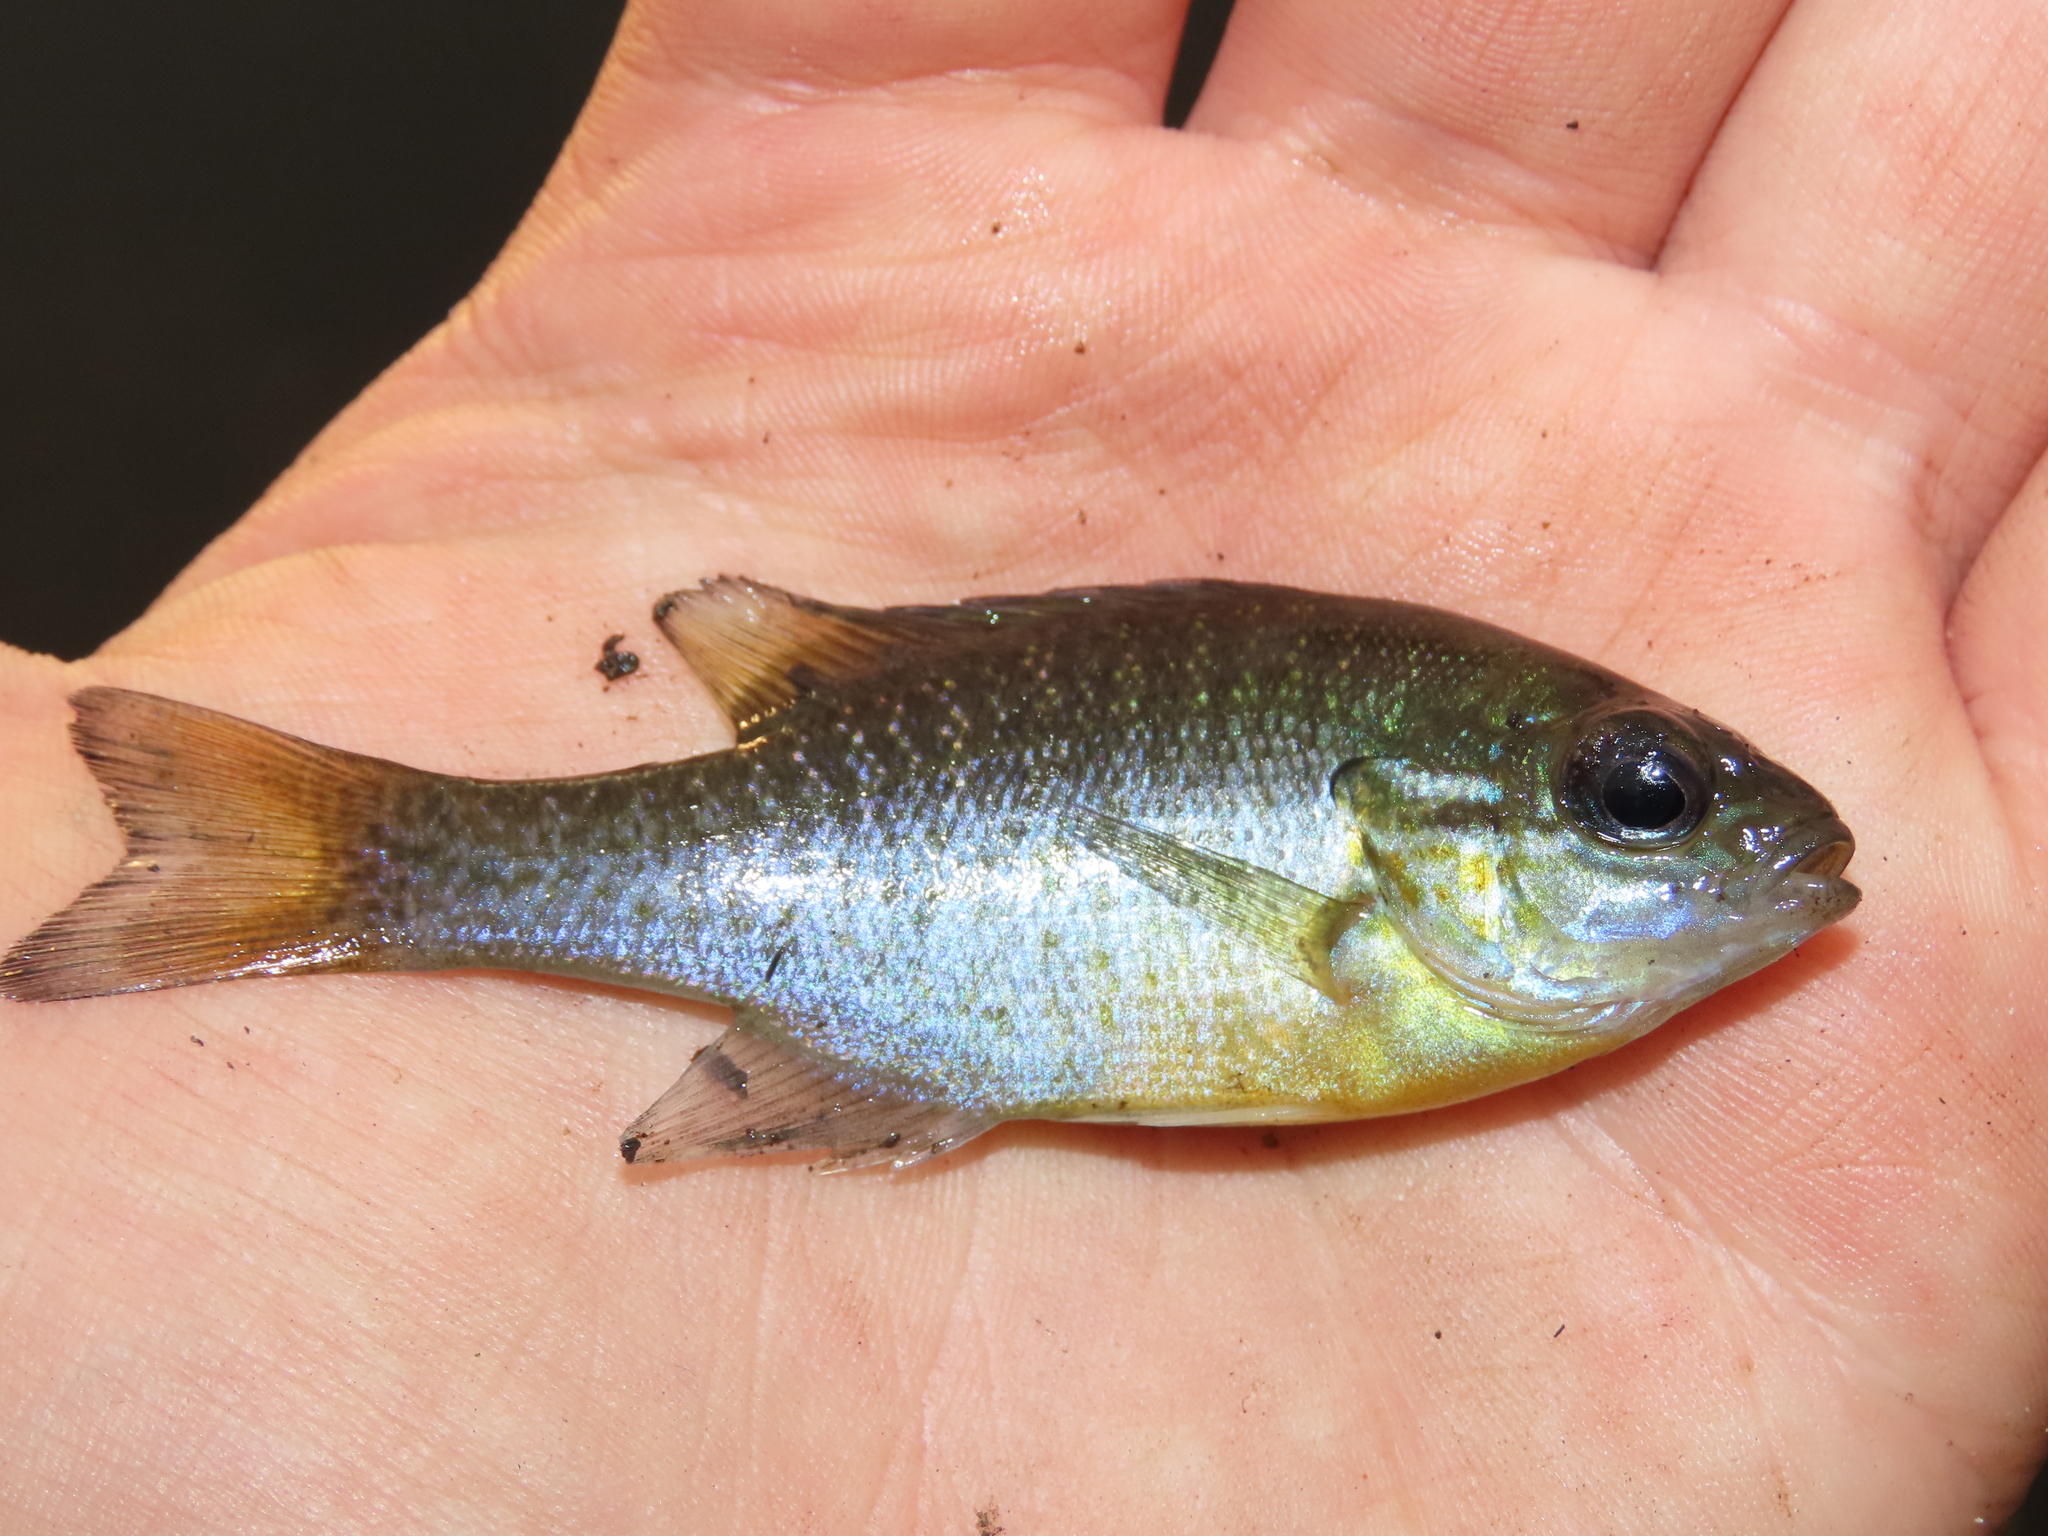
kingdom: Animalia
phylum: Chordata
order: Perciformes
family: Centrarchidae
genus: Lepomis
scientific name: Lepomis auritus
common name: Redbreast sunfish
